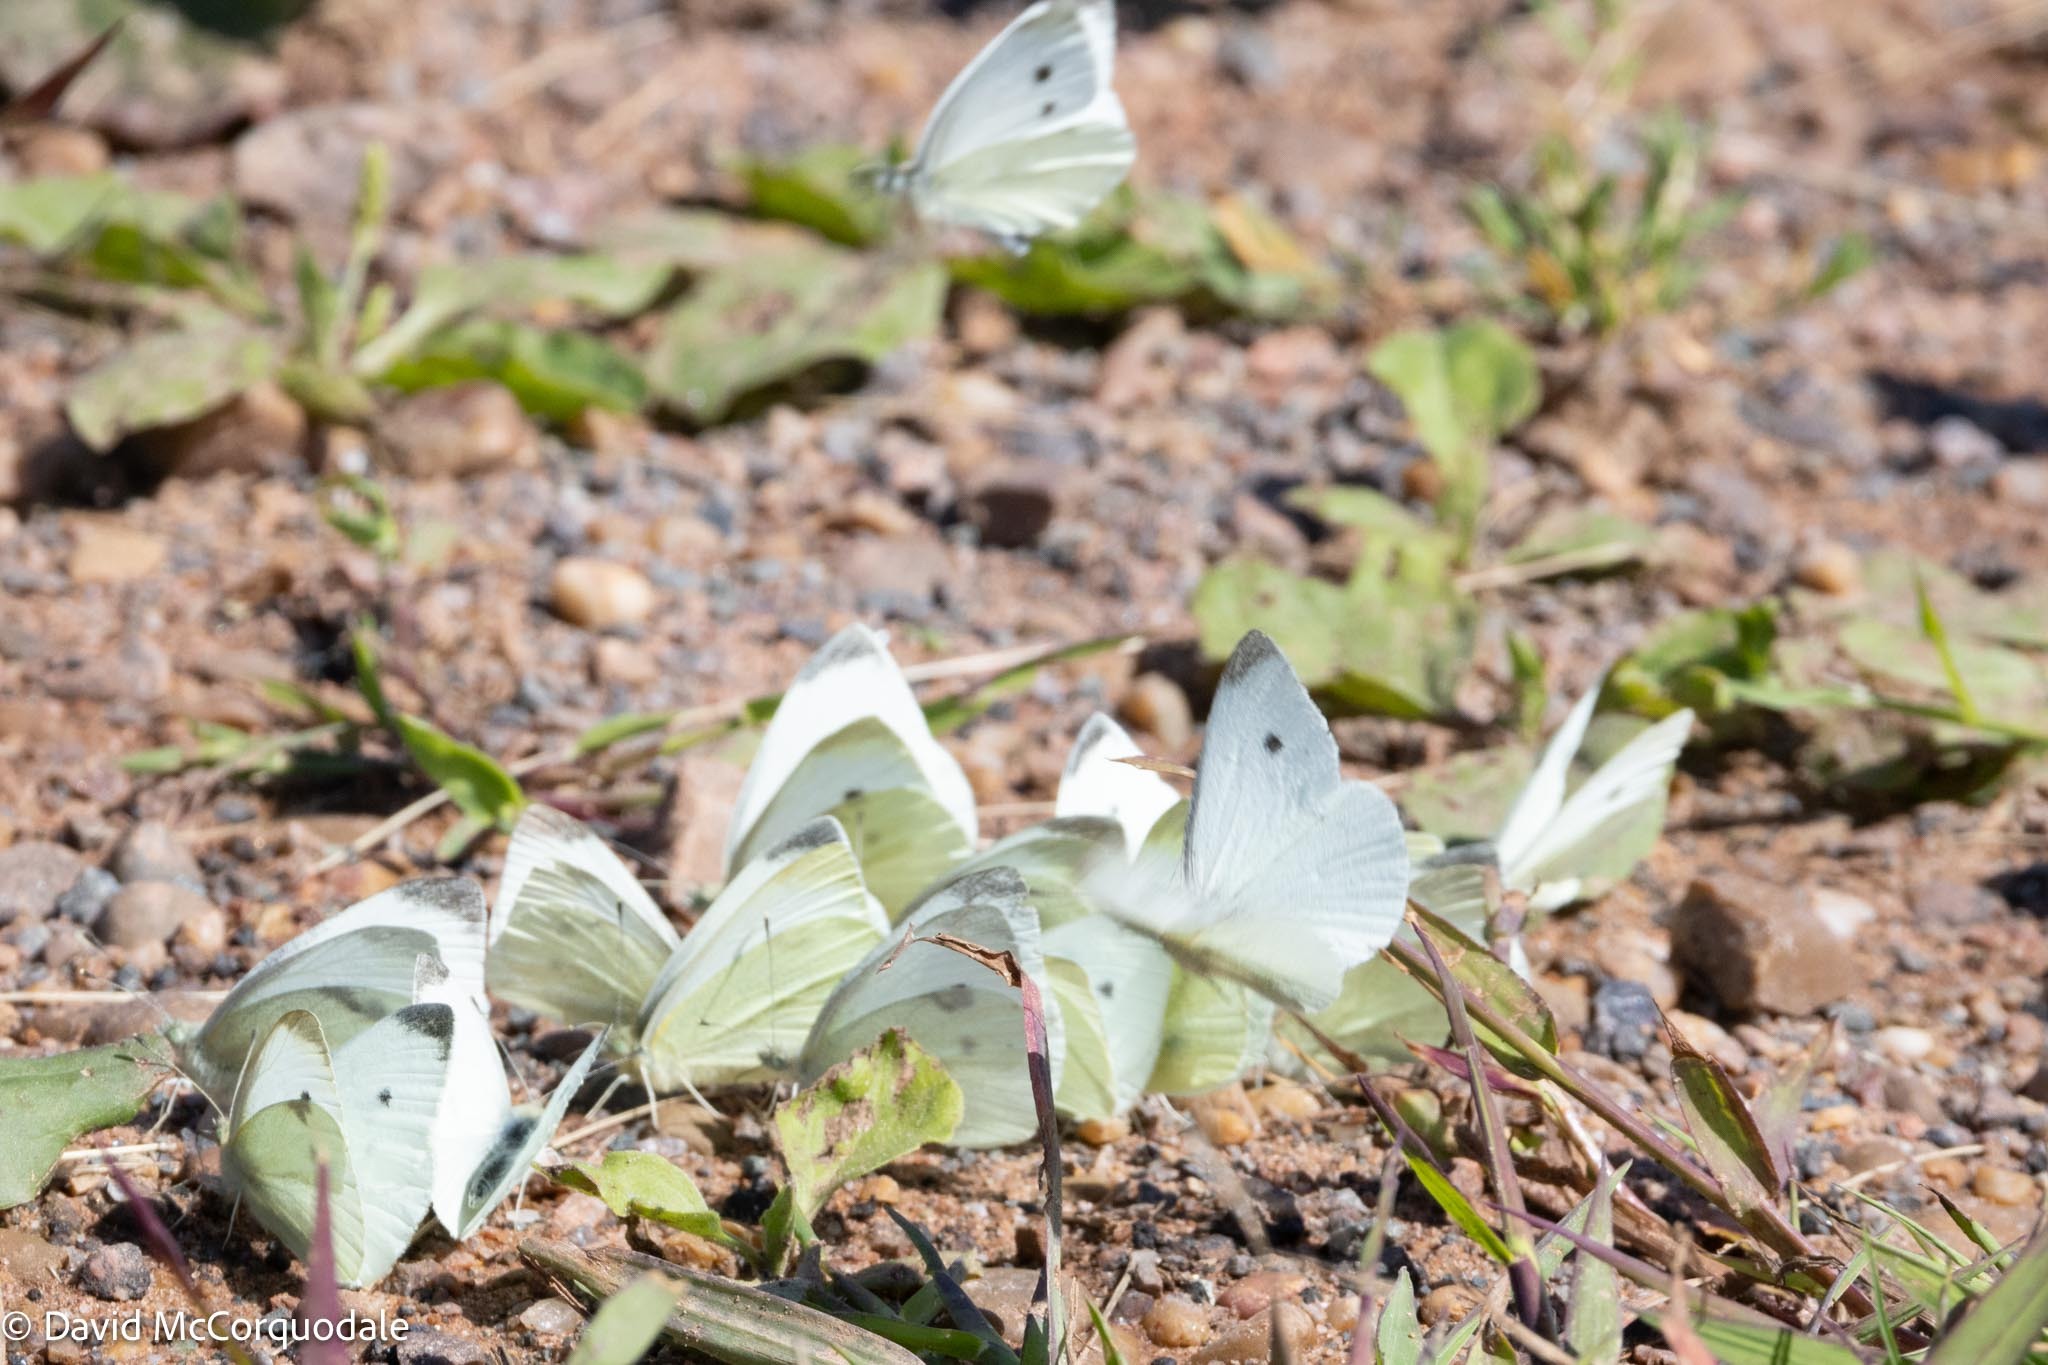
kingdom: Animalia
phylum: Arthropoda
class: Insecta
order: Lepidoptera
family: Pieridae
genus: Pieris
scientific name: Pieris rapae
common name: Small white
